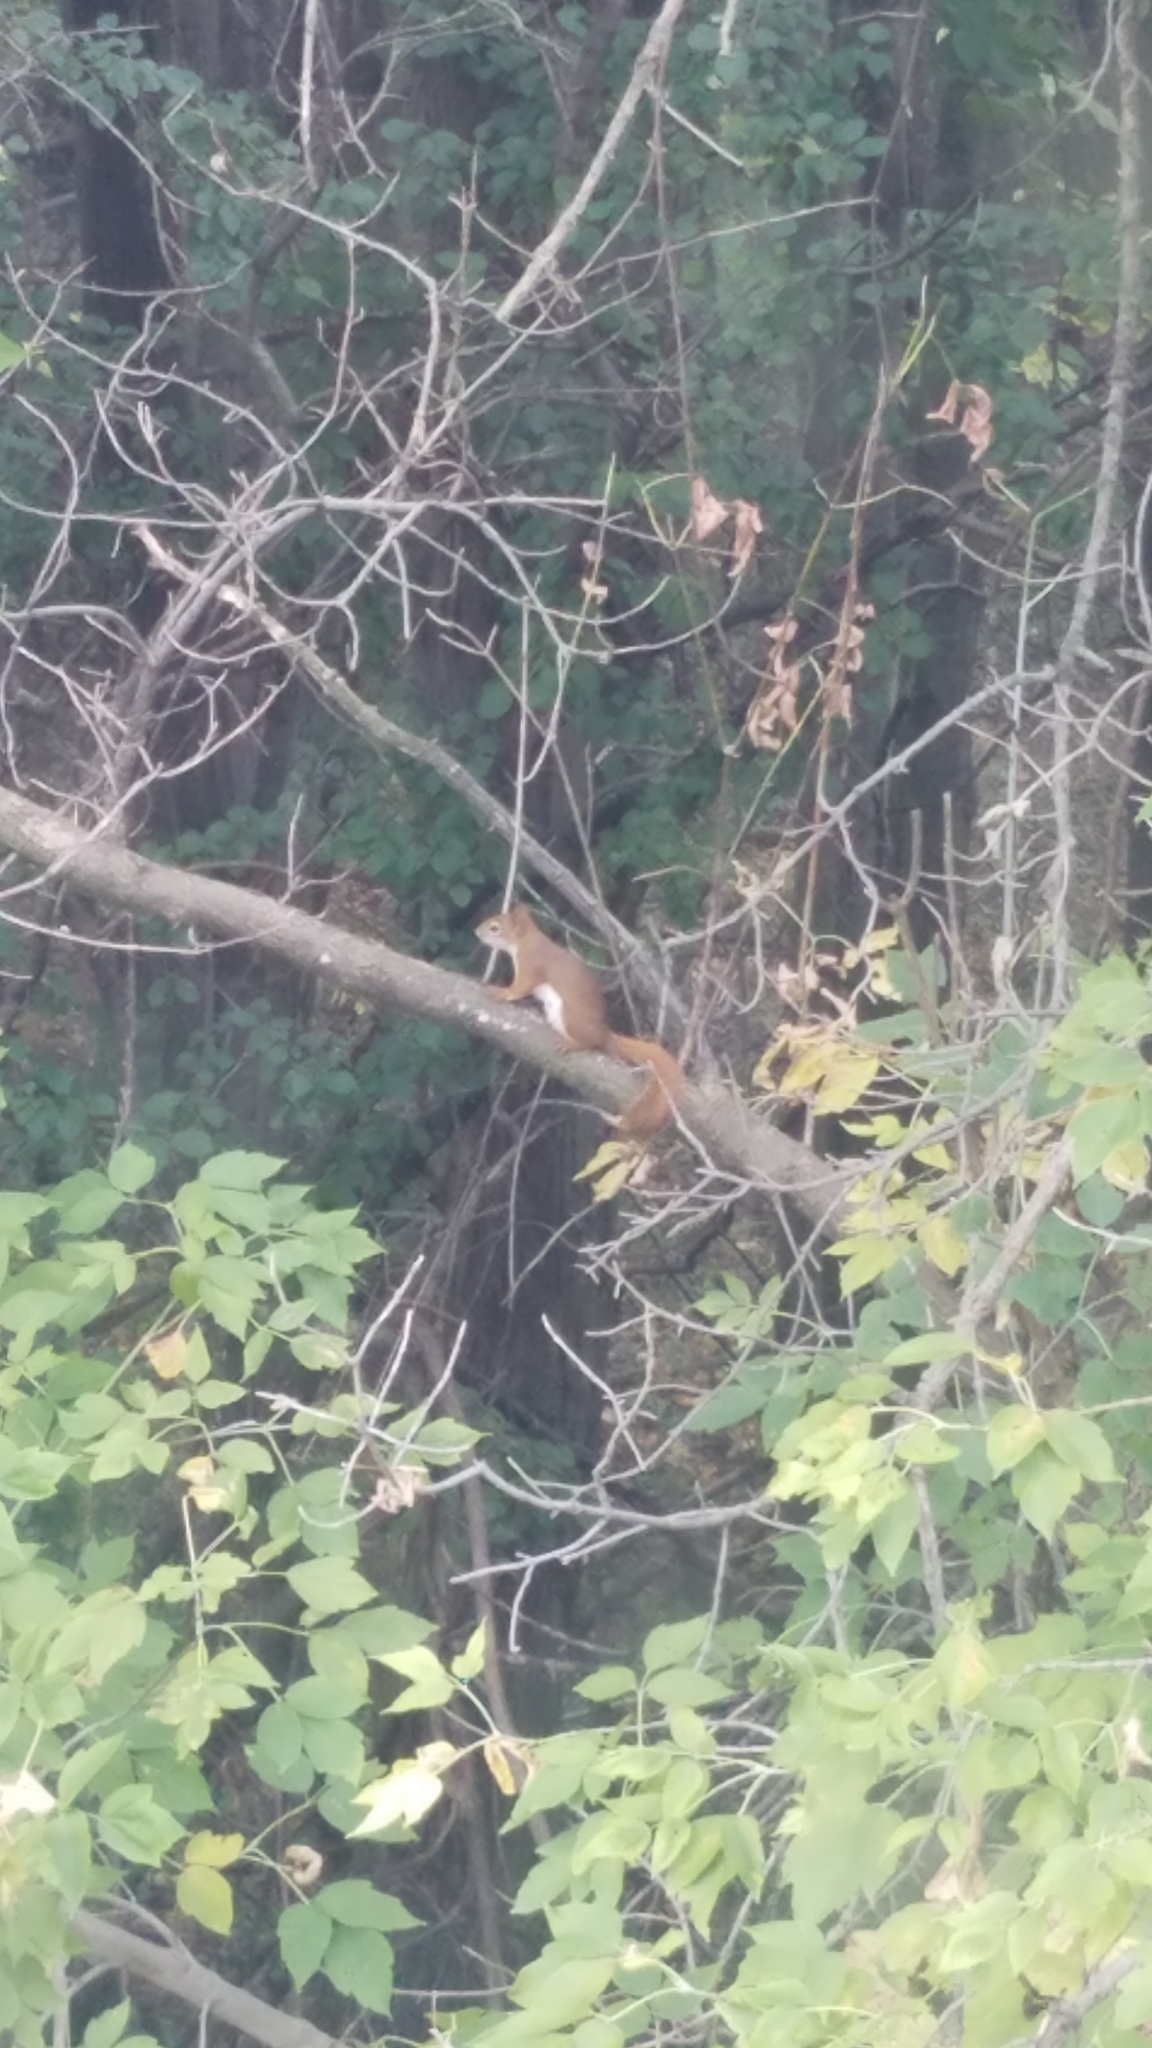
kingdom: Animalia
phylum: Chordata
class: Mammalia
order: Rodentia
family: Sciuridae
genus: Tamiasciurus
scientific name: Tamiasciurus hudsonicus
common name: Red squirrel
